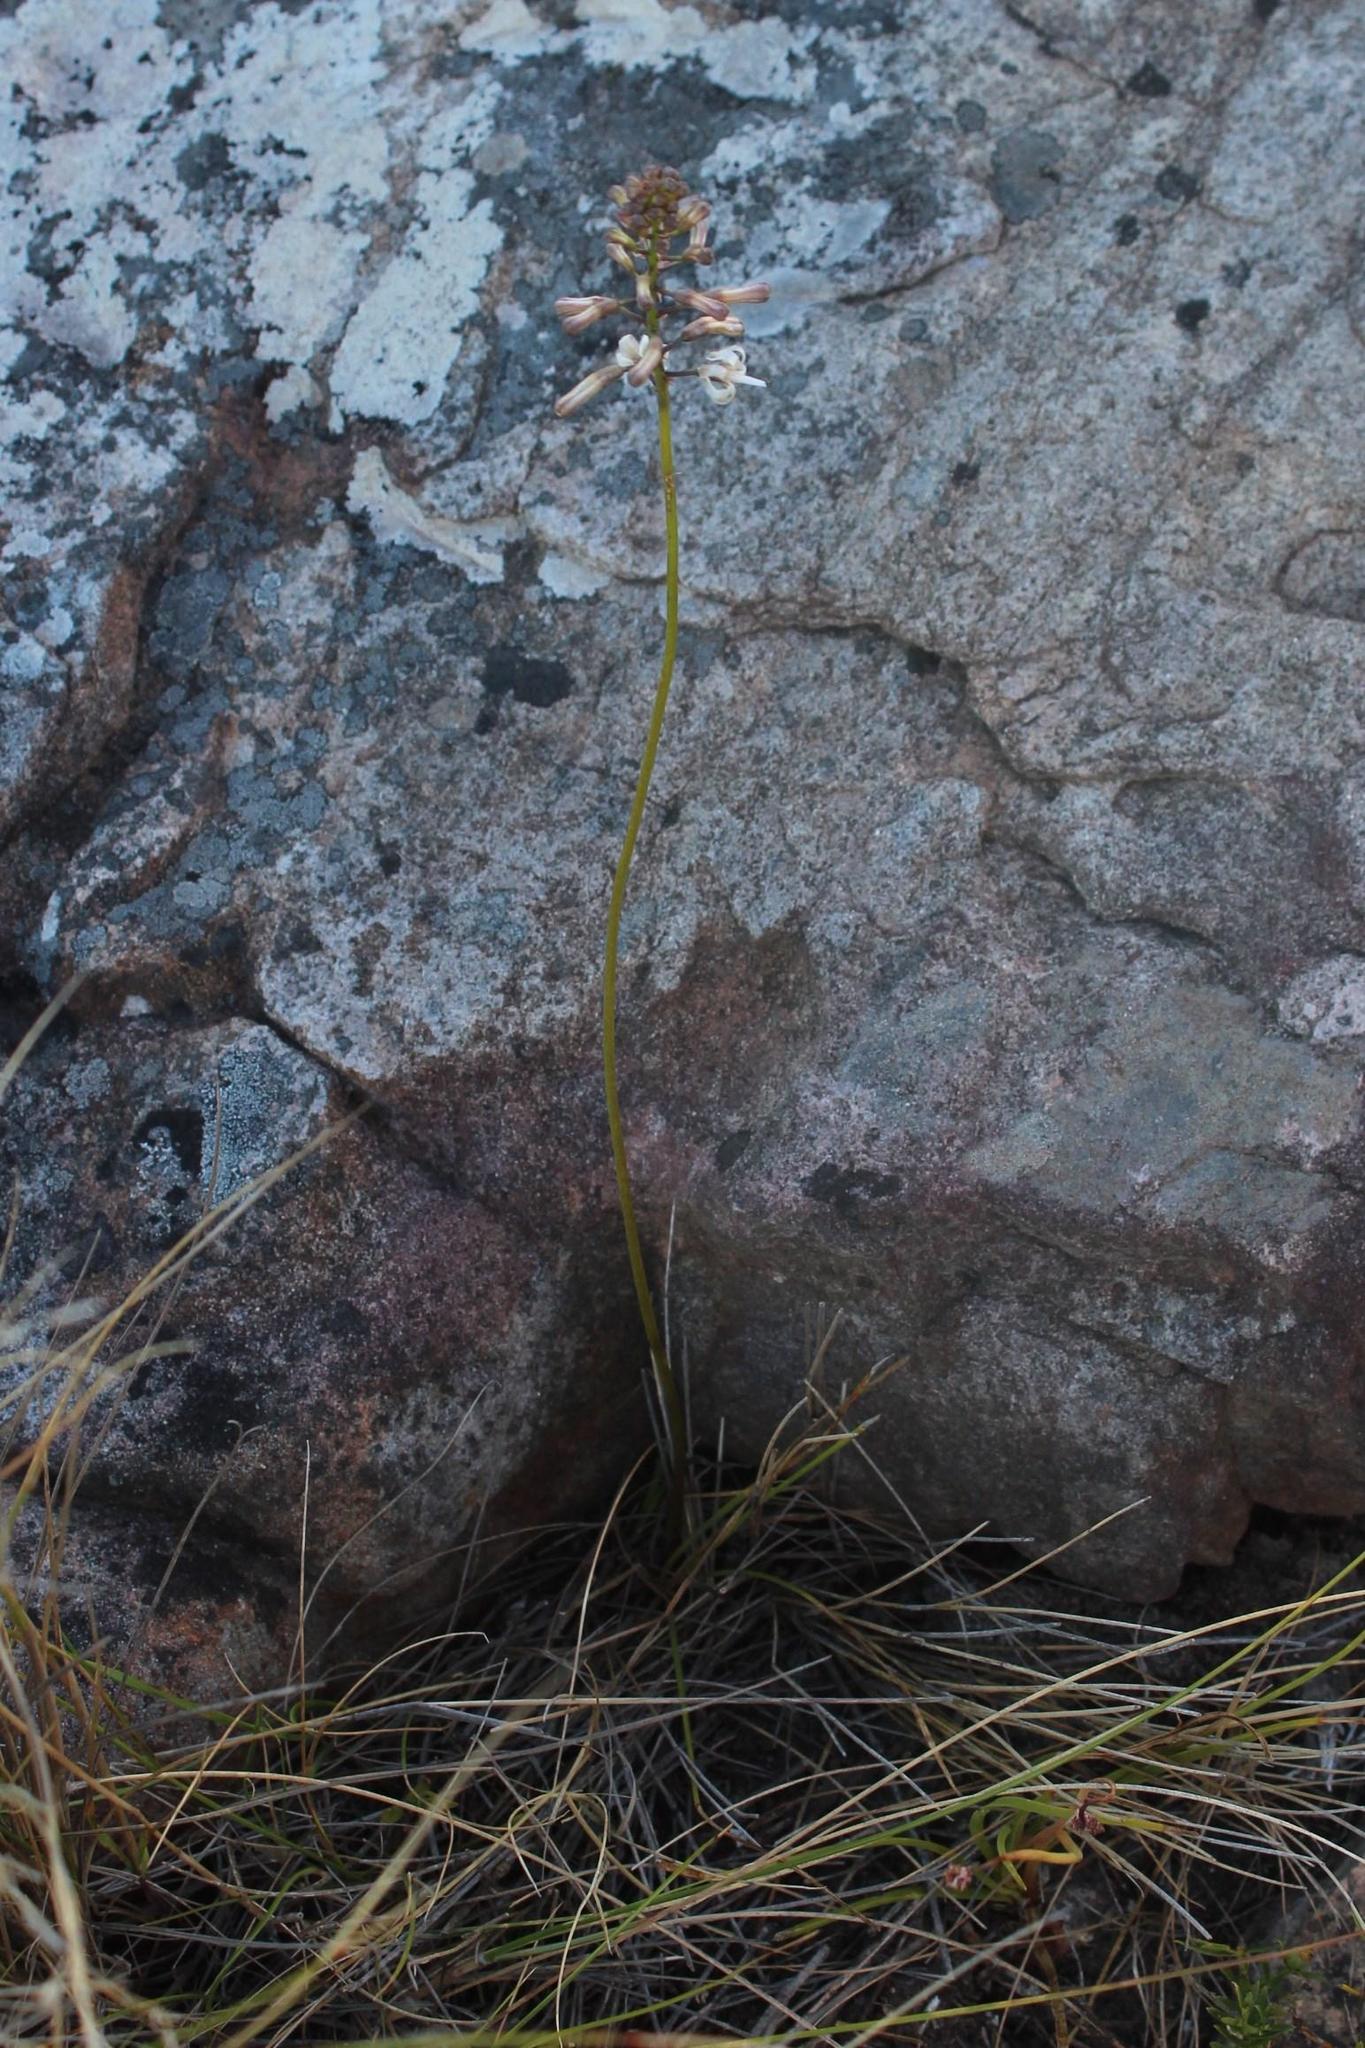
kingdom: Plantae
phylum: Tracheophyta
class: Liliopsida
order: Asparagales
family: Asparagaceae
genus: Drimia
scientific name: Drimia elata
